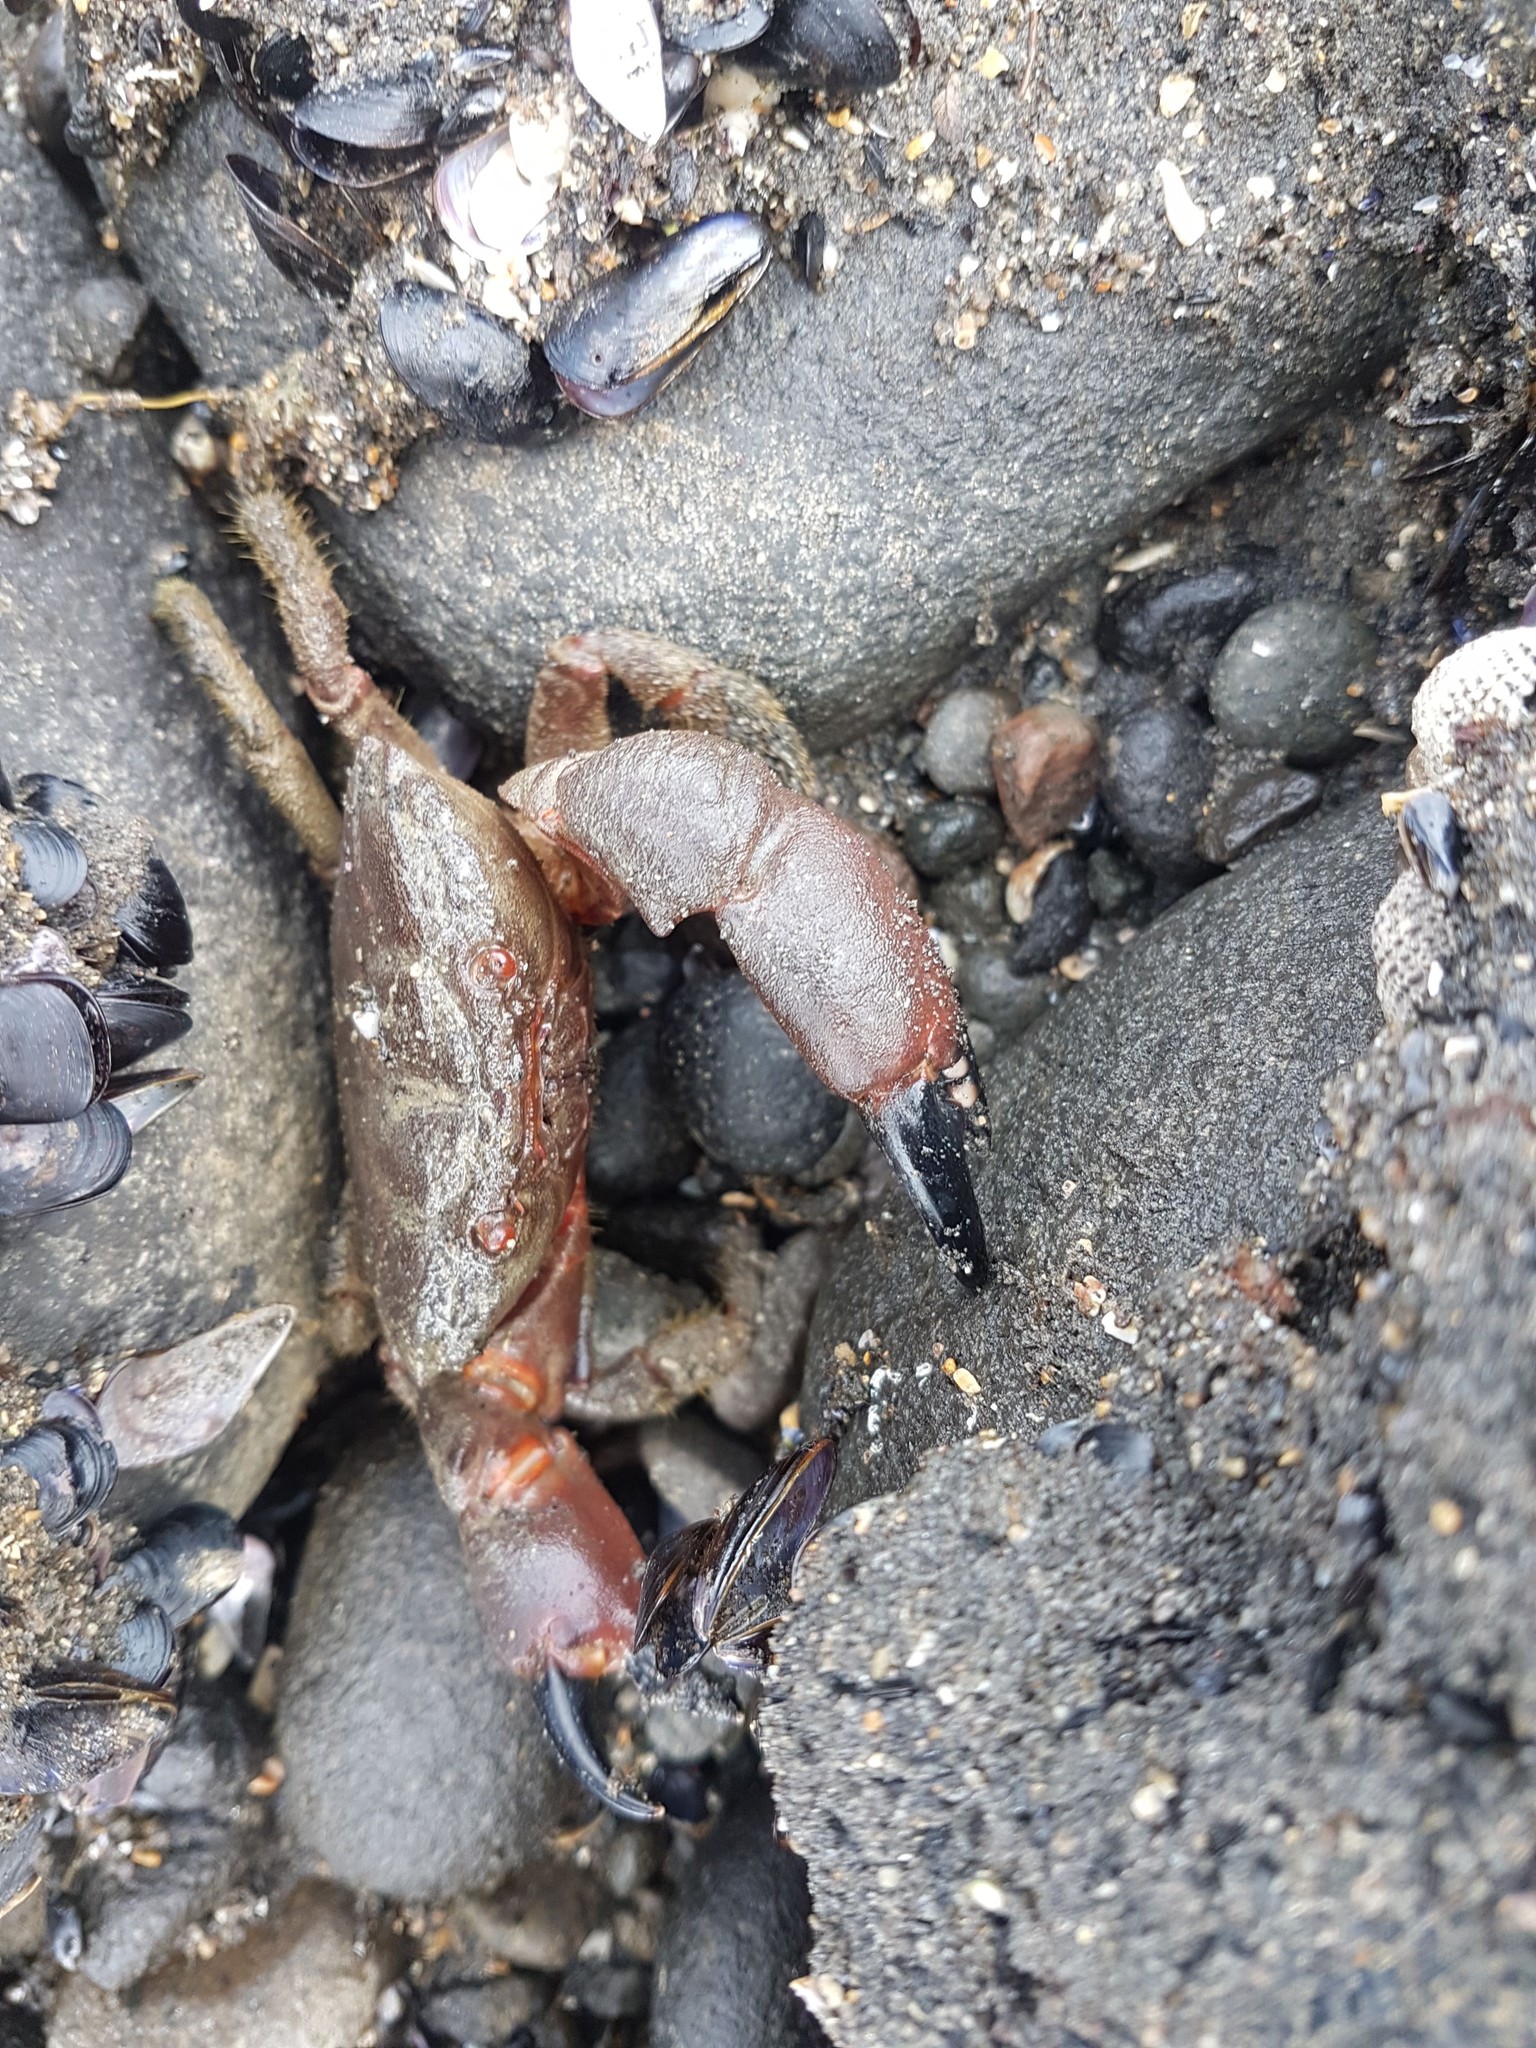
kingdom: Animalia
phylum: Arthropoda
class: Malacostraca
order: Decapoda
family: Oziidae
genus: Ozius
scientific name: Ozius deplanatus
